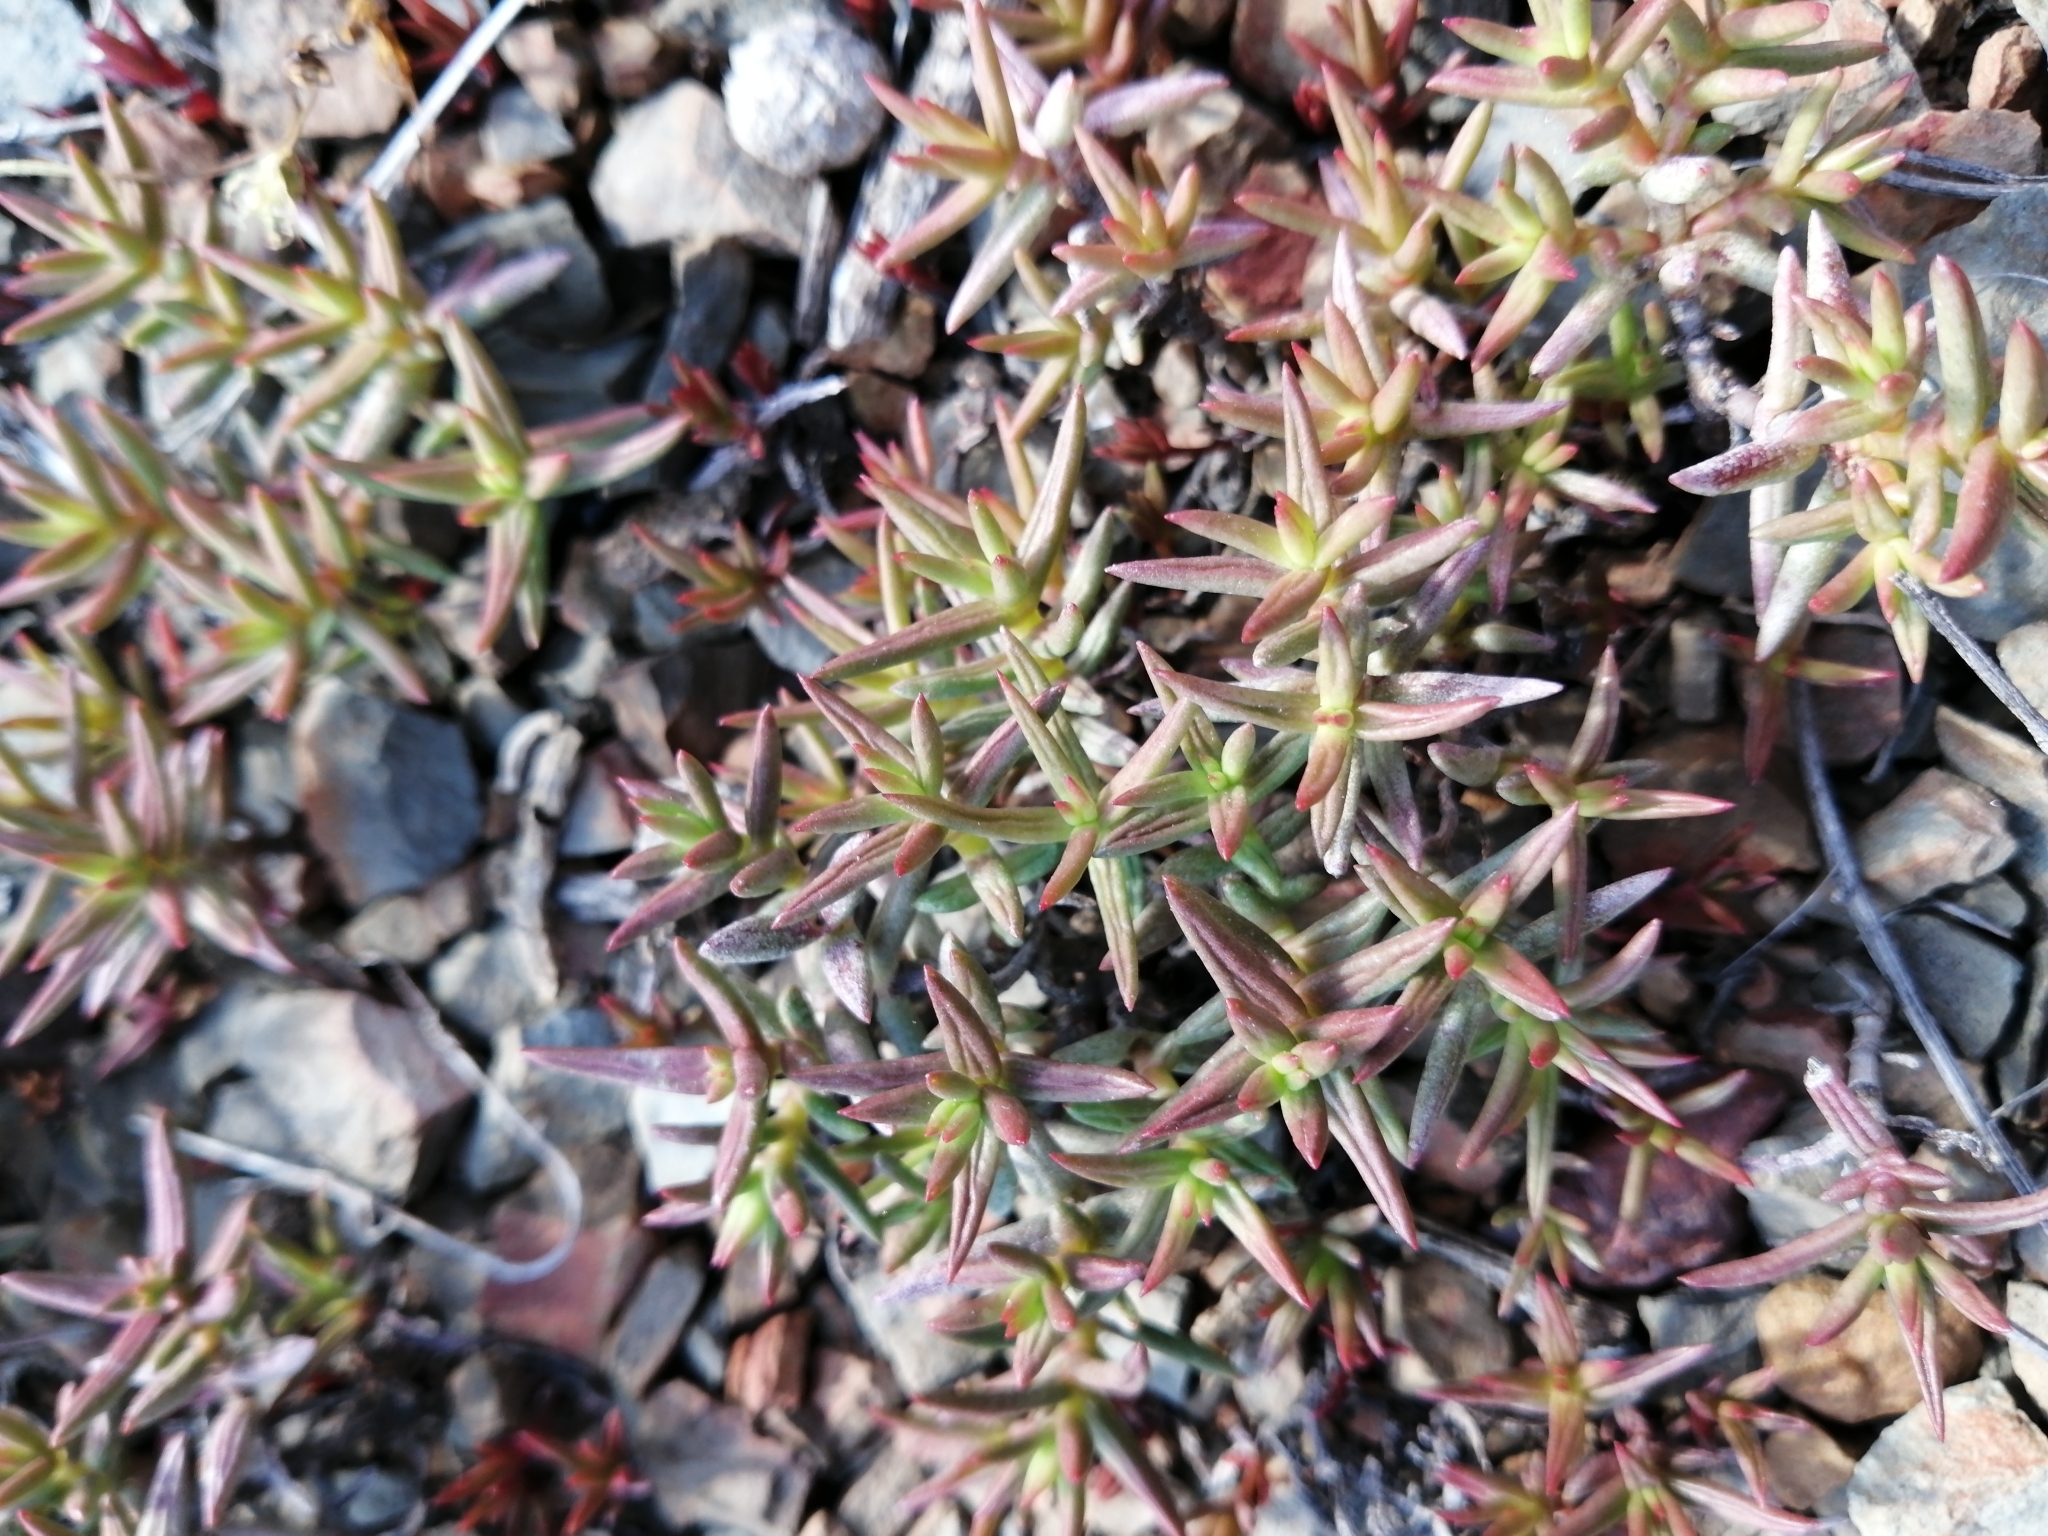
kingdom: Plantae
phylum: Tracheophyta
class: Magnoliopsida
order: Saxifragales
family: Crassulaceae
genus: Crassula
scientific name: Crassula tetragona
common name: Pygmyweed
